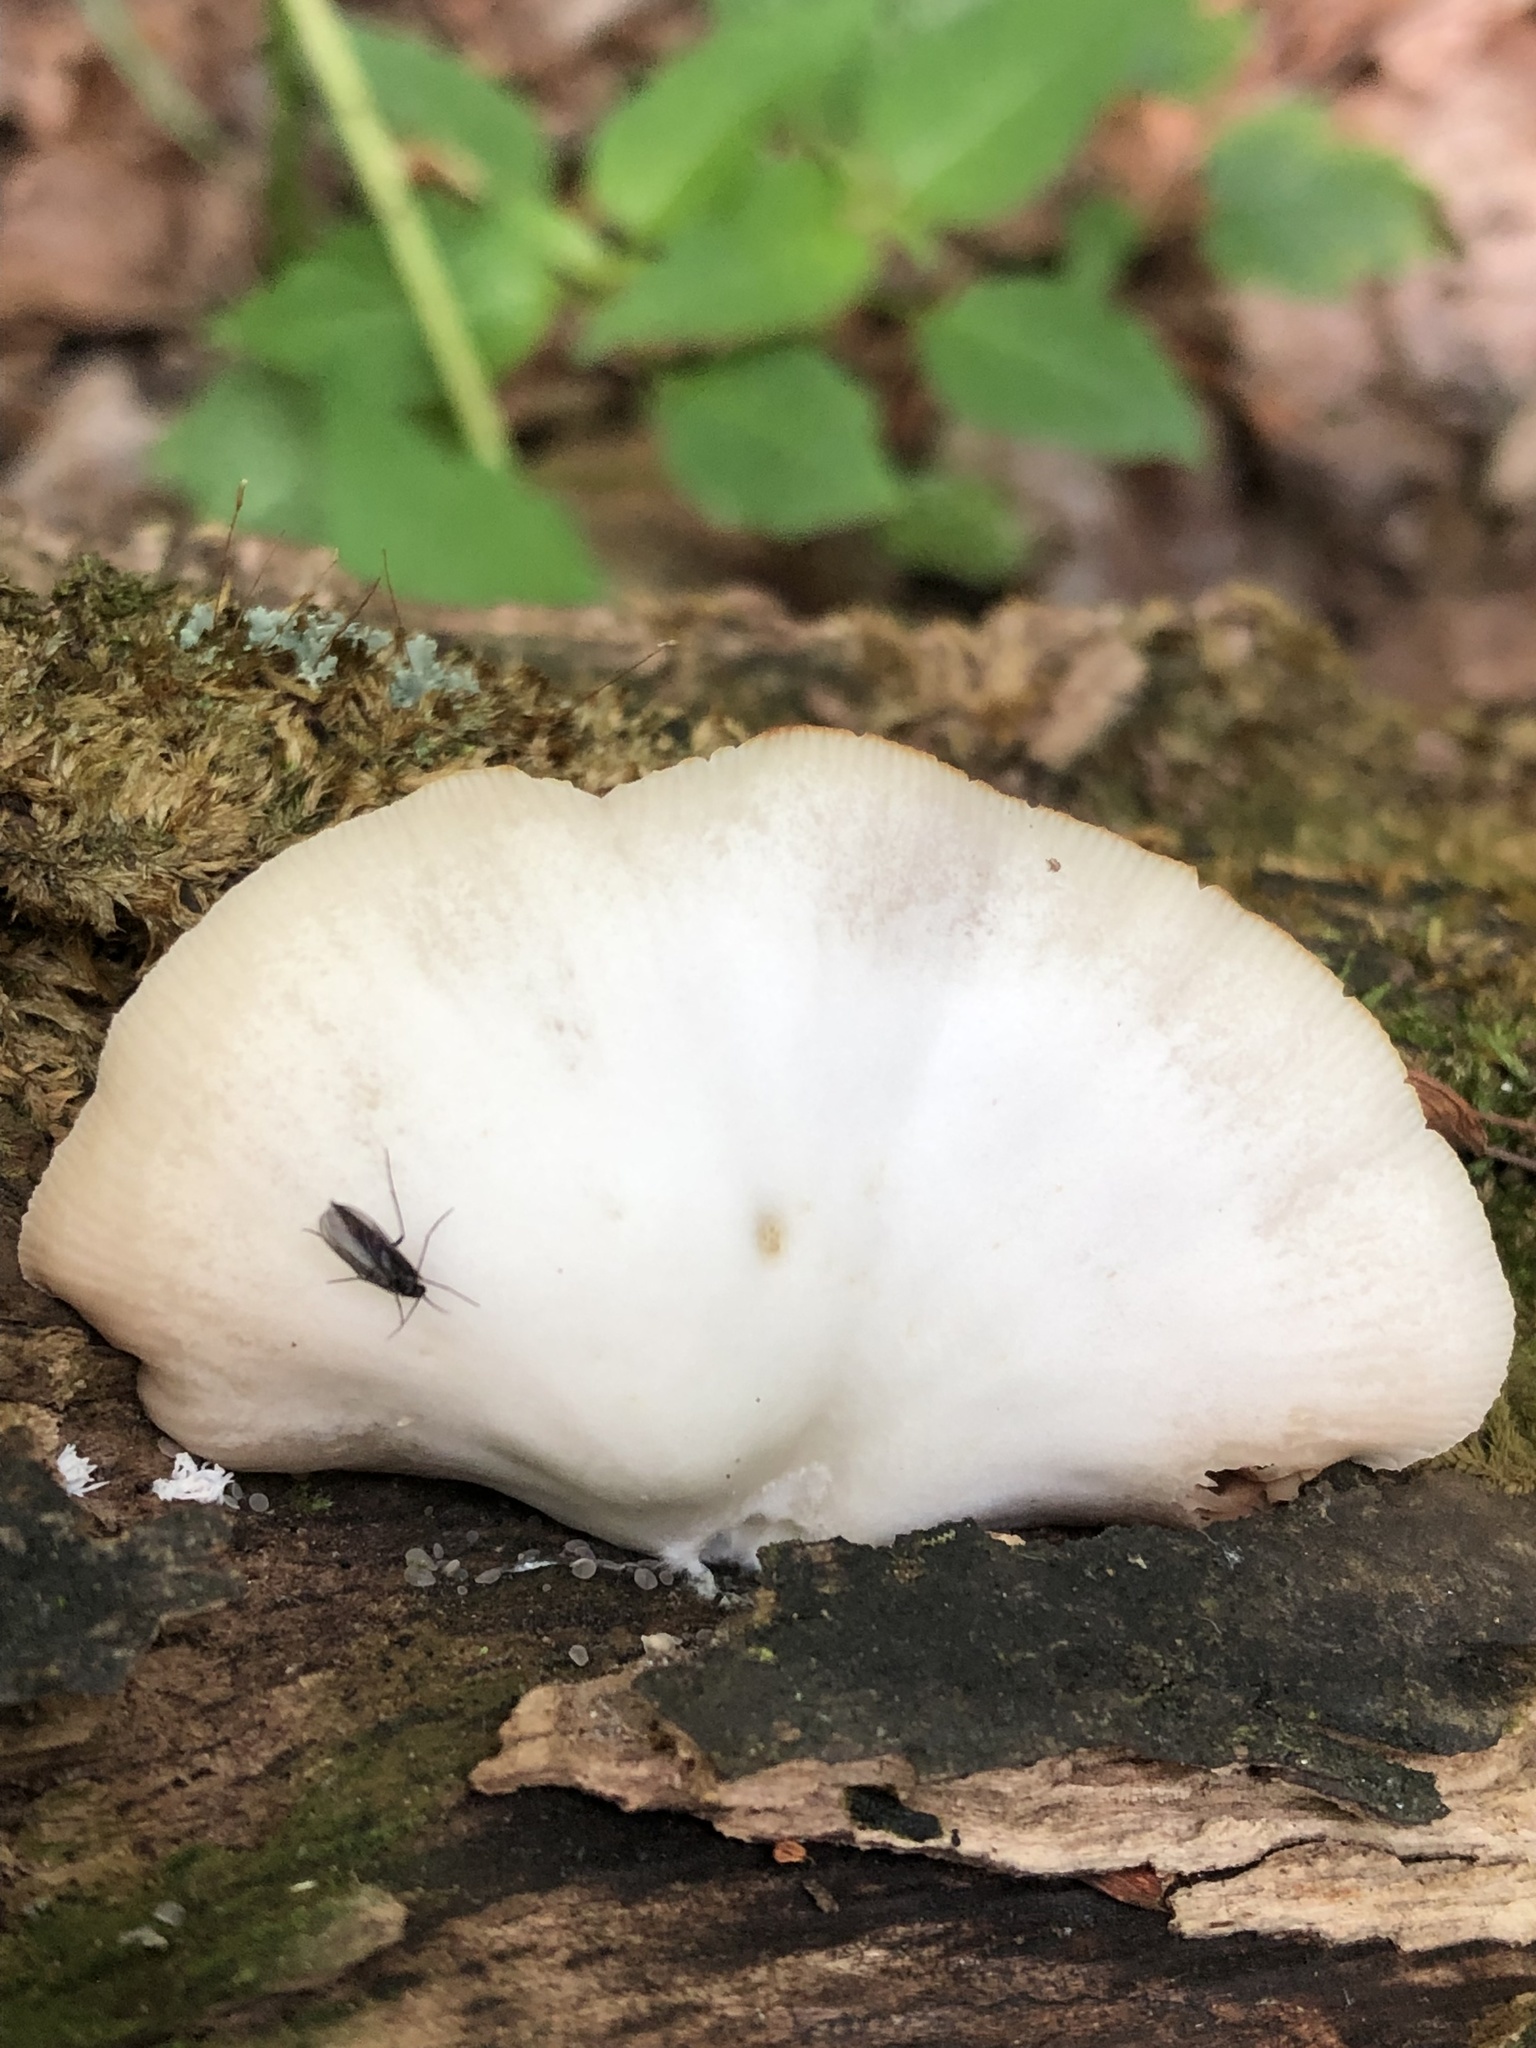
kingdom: Fungi
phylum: Basidiomycota
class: Agaricomycetes
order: Agaricales
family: Crepidotaceae
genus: Crepidotus
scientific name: Crepidotus applanatus
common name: Flat crep
